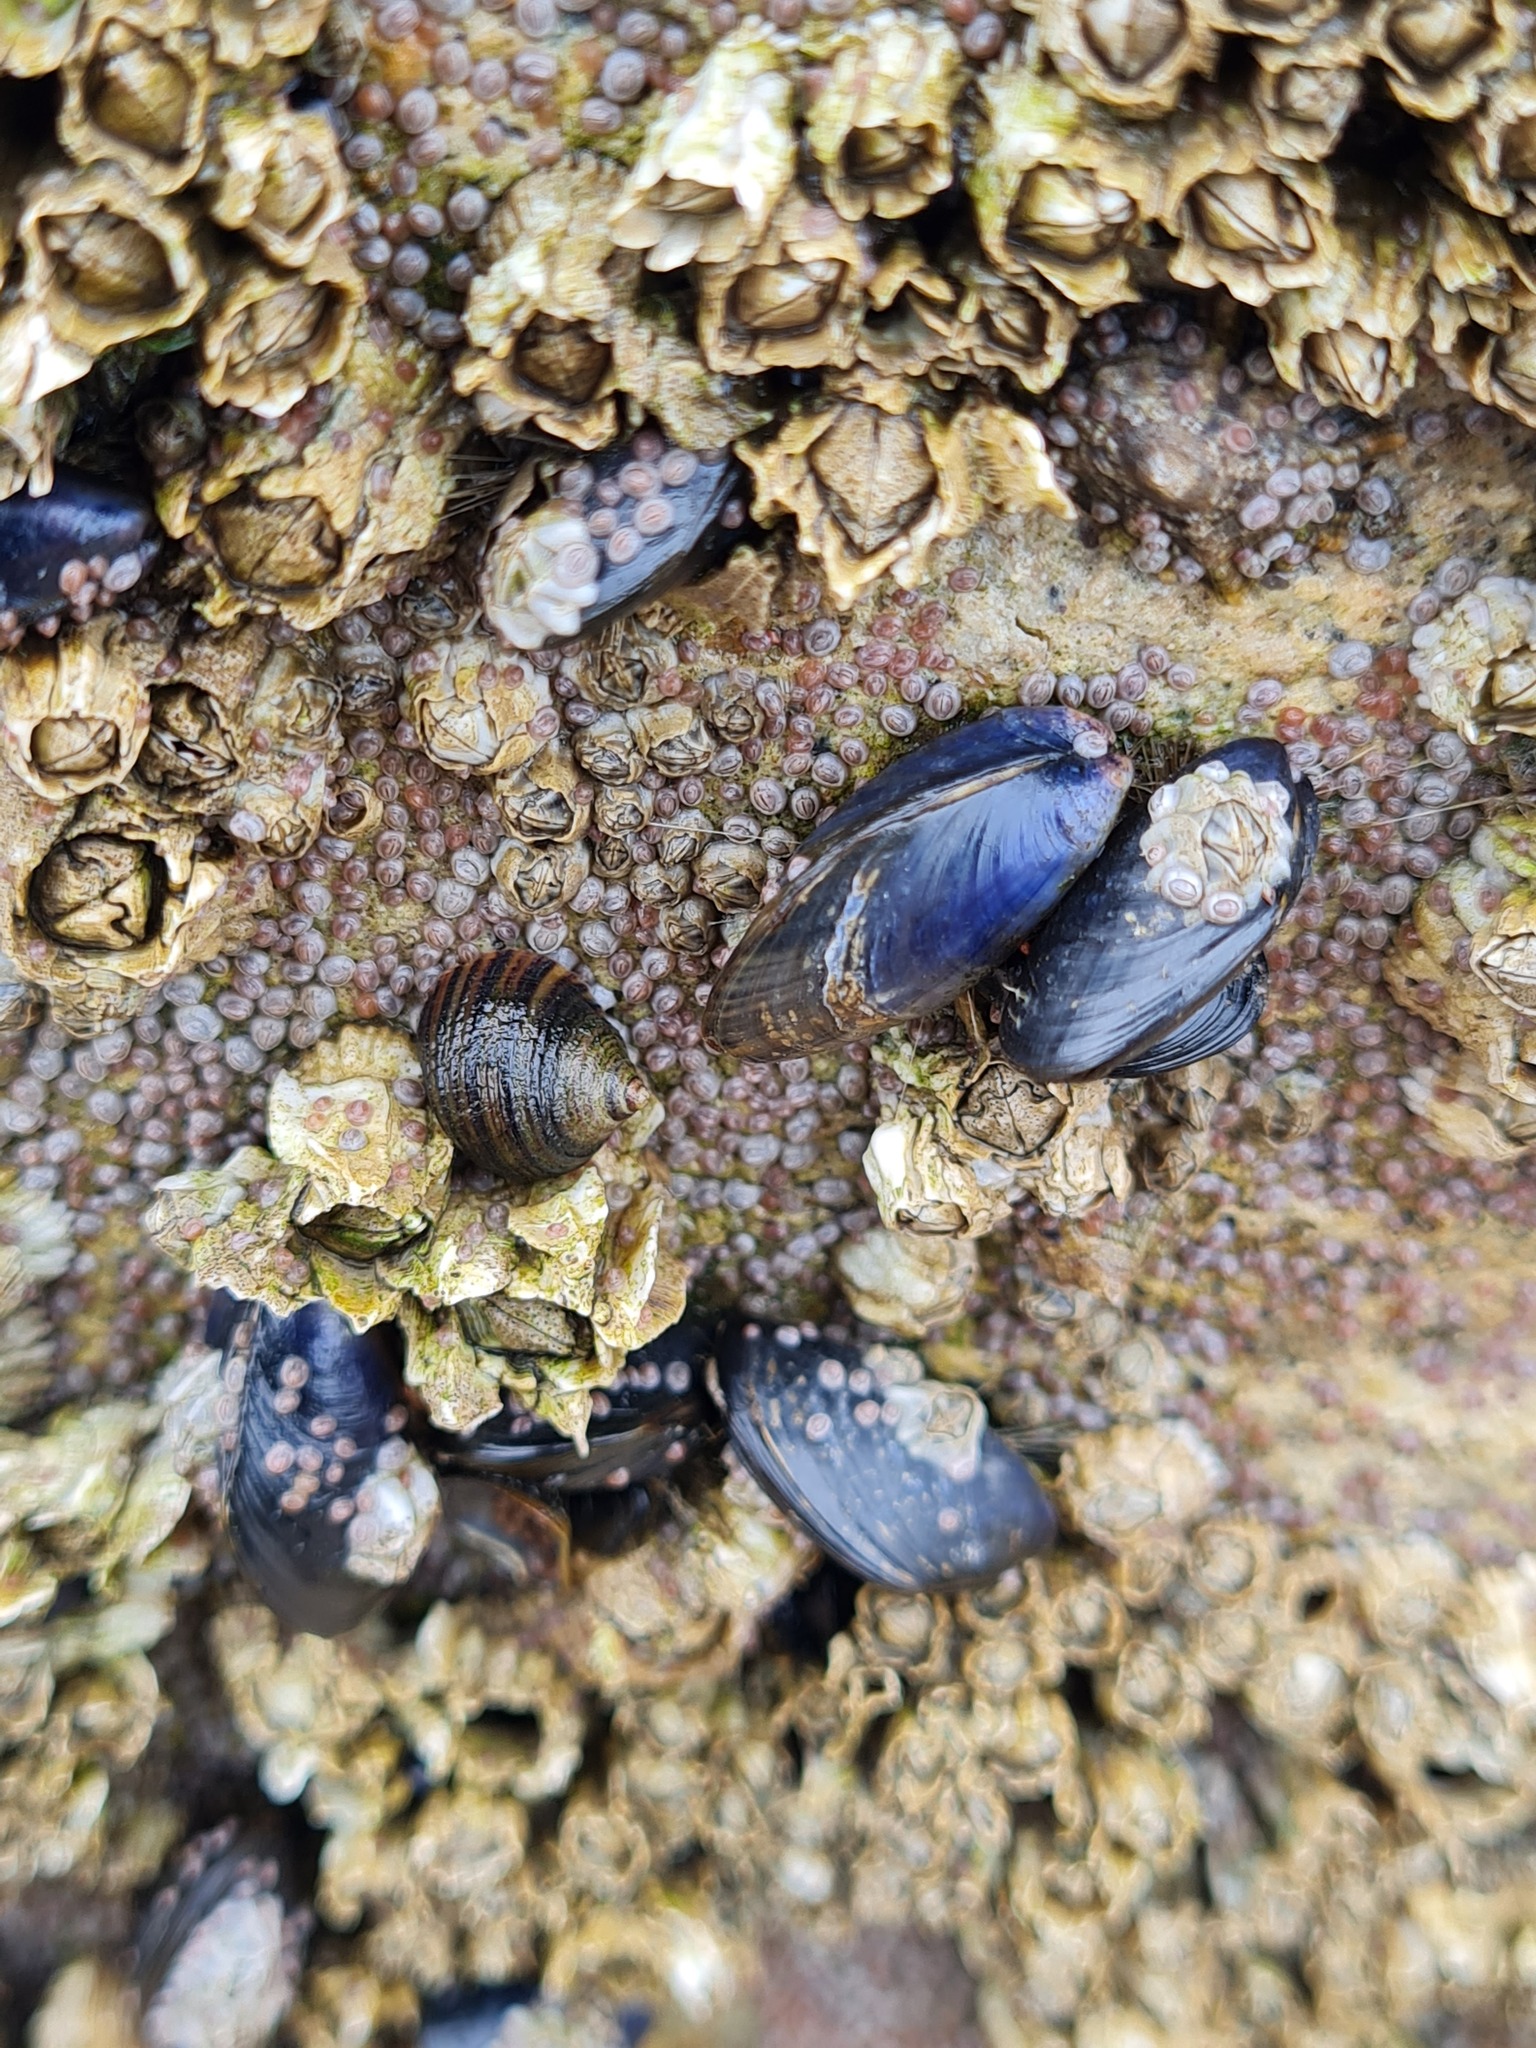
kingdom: Animalia
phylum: Mollusca
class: Bivalvia
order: Mytilida
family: Mytilidae
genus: Mytilus
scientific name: Mytilus edulis
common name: Blue mussel
